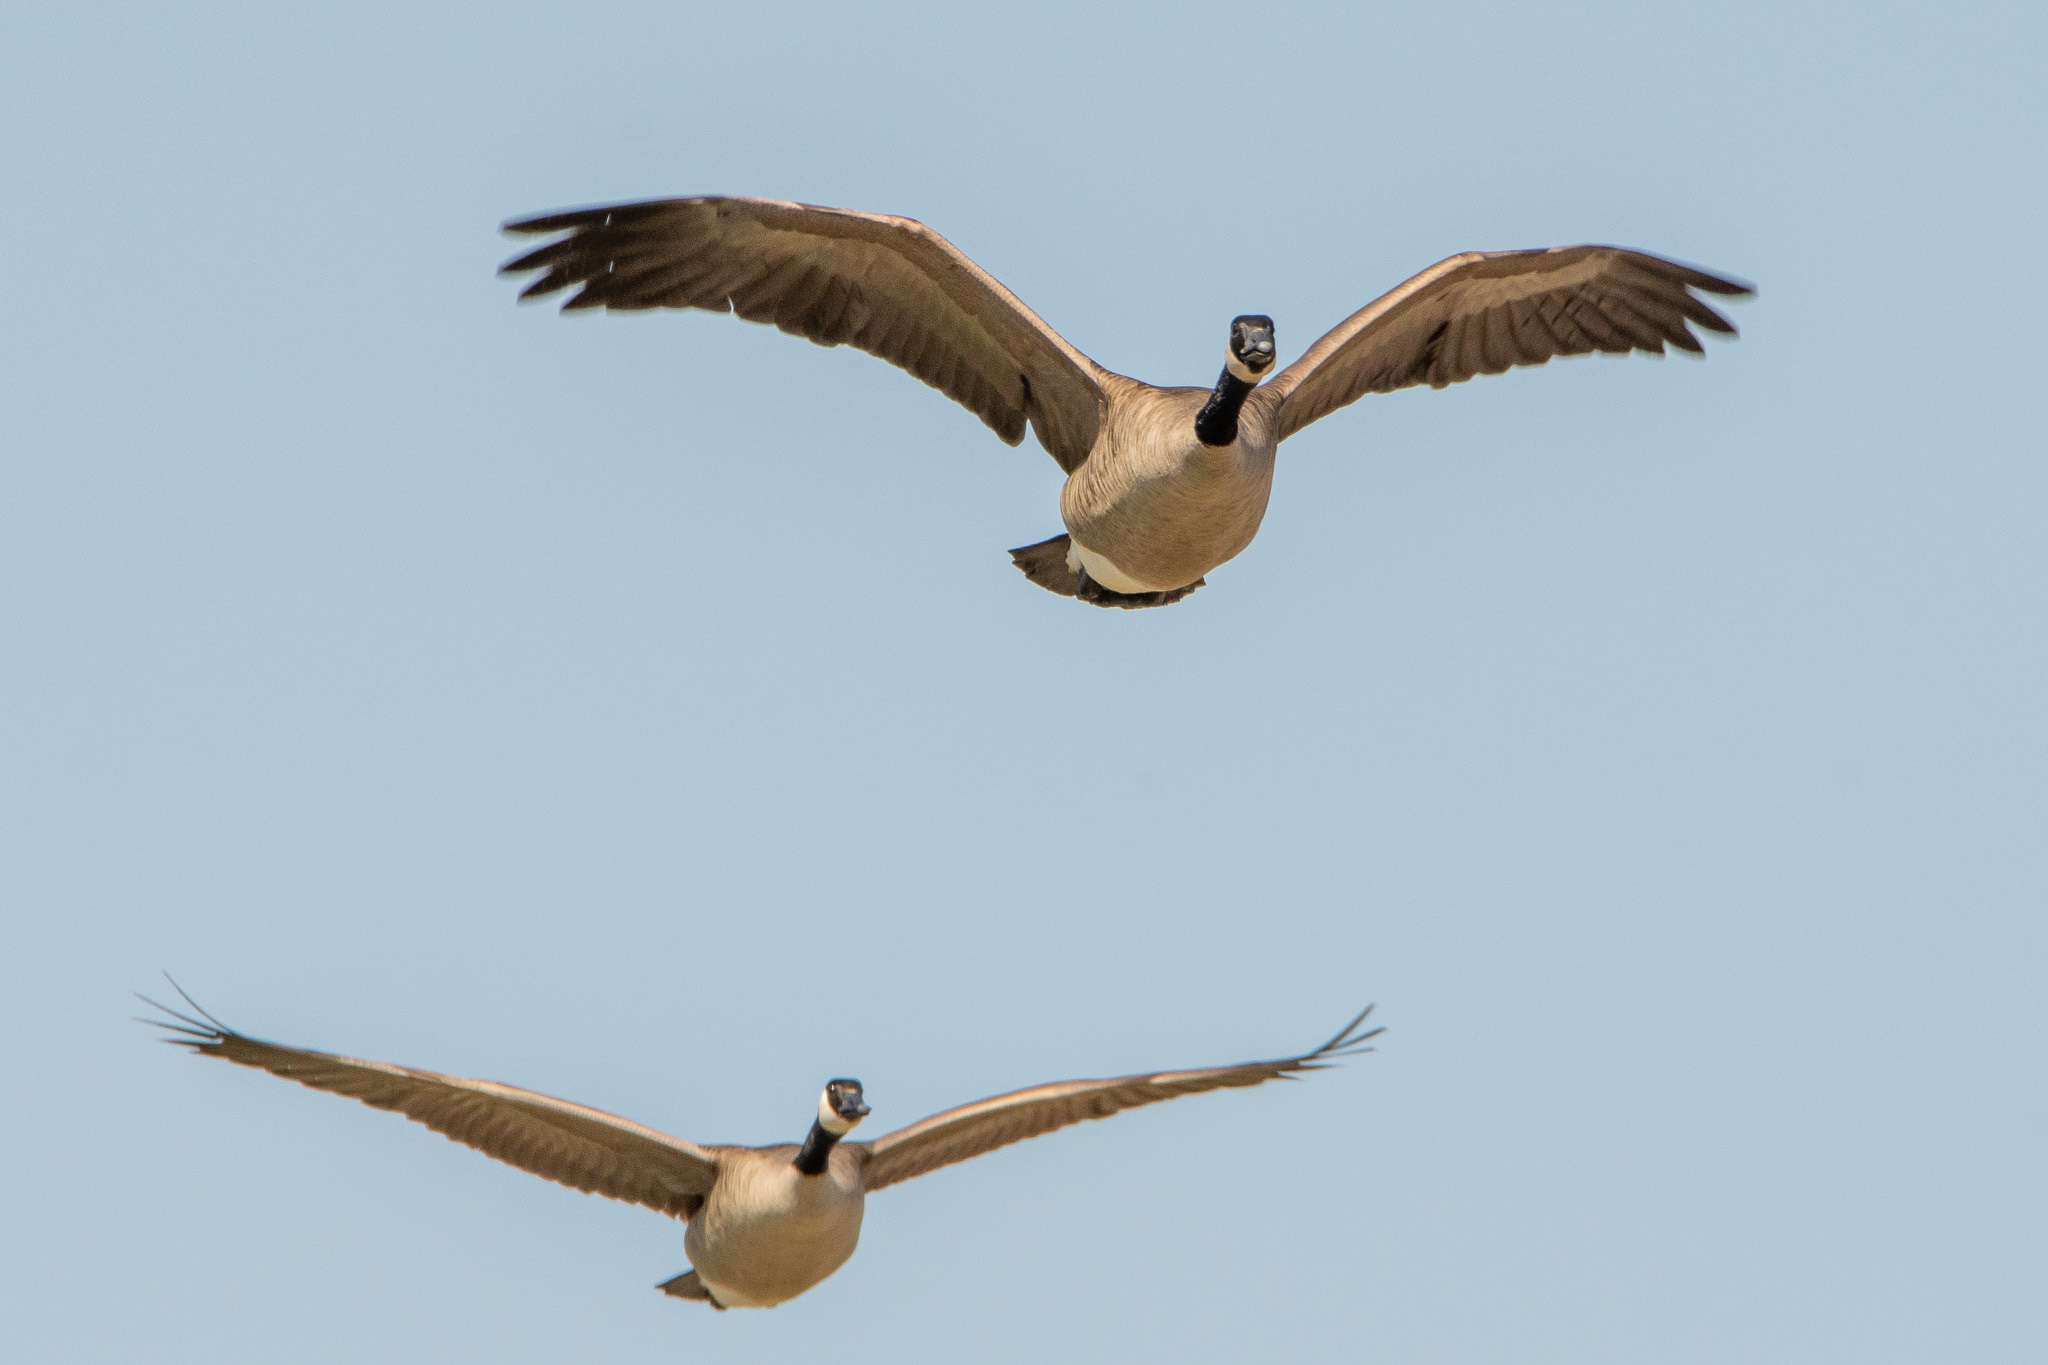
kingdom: Animalia
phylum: Chordata
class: Aves
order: Anseriformes
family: Anatidae
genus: Branta
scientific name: Branta canadensis
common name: Canada goose
